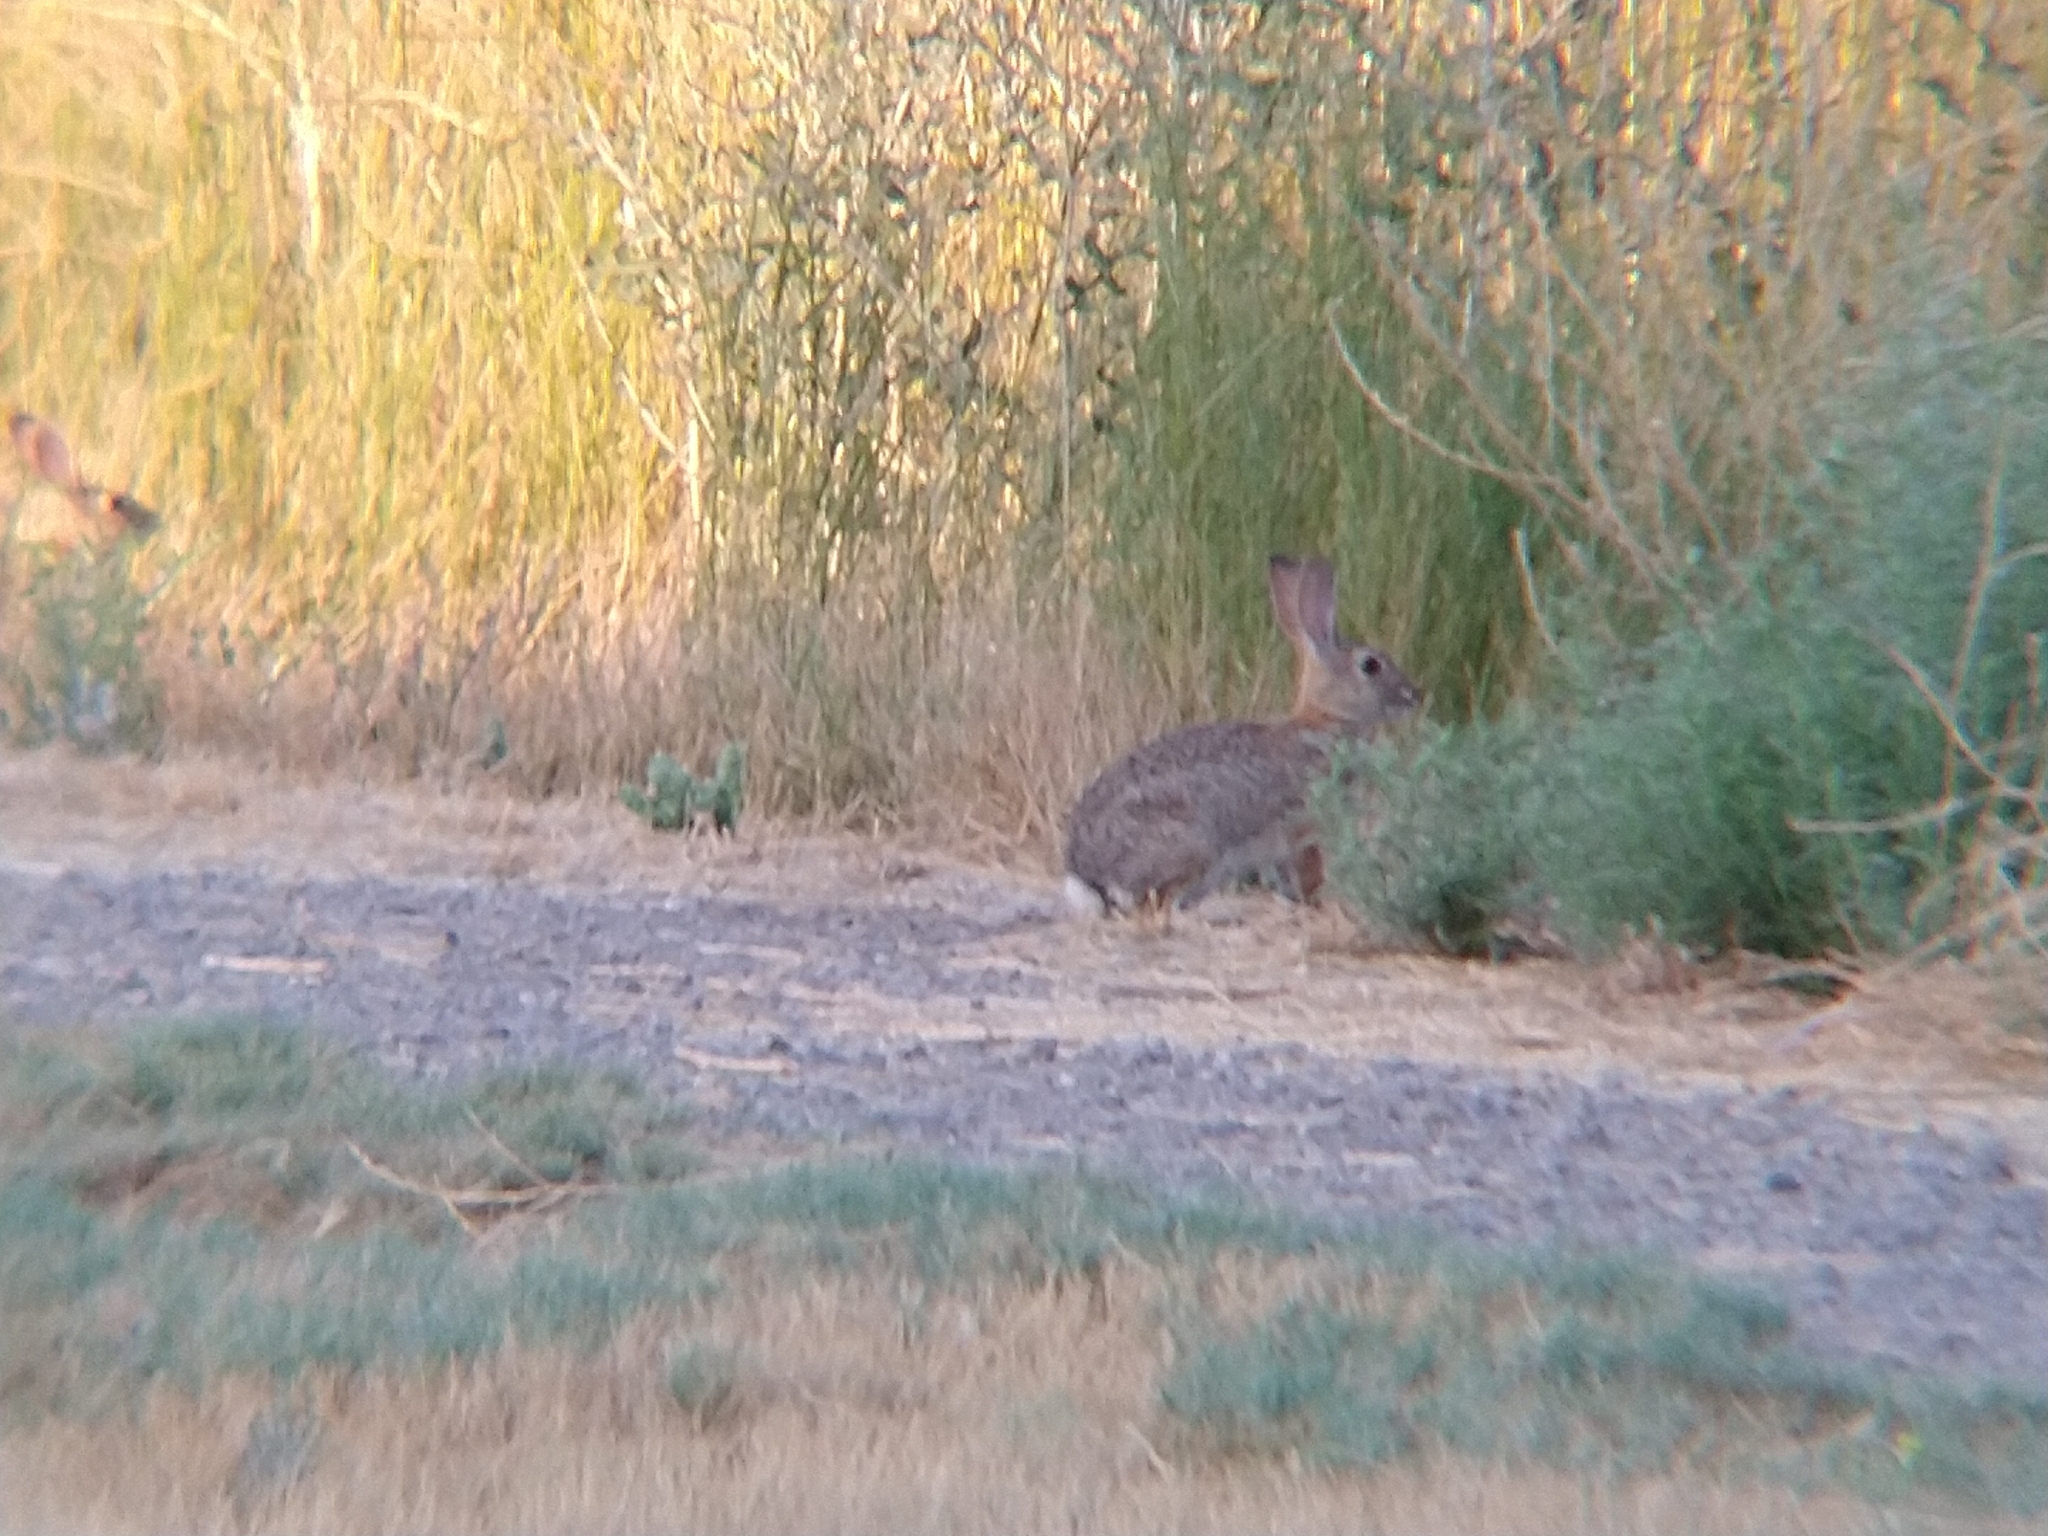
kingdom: Animalia
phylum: Chordata
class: Mammalia
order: Lagomorpha
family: Leporidae
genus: Sylvilagus
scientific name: Sylvilagus audubonii
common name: Desert cottontail
